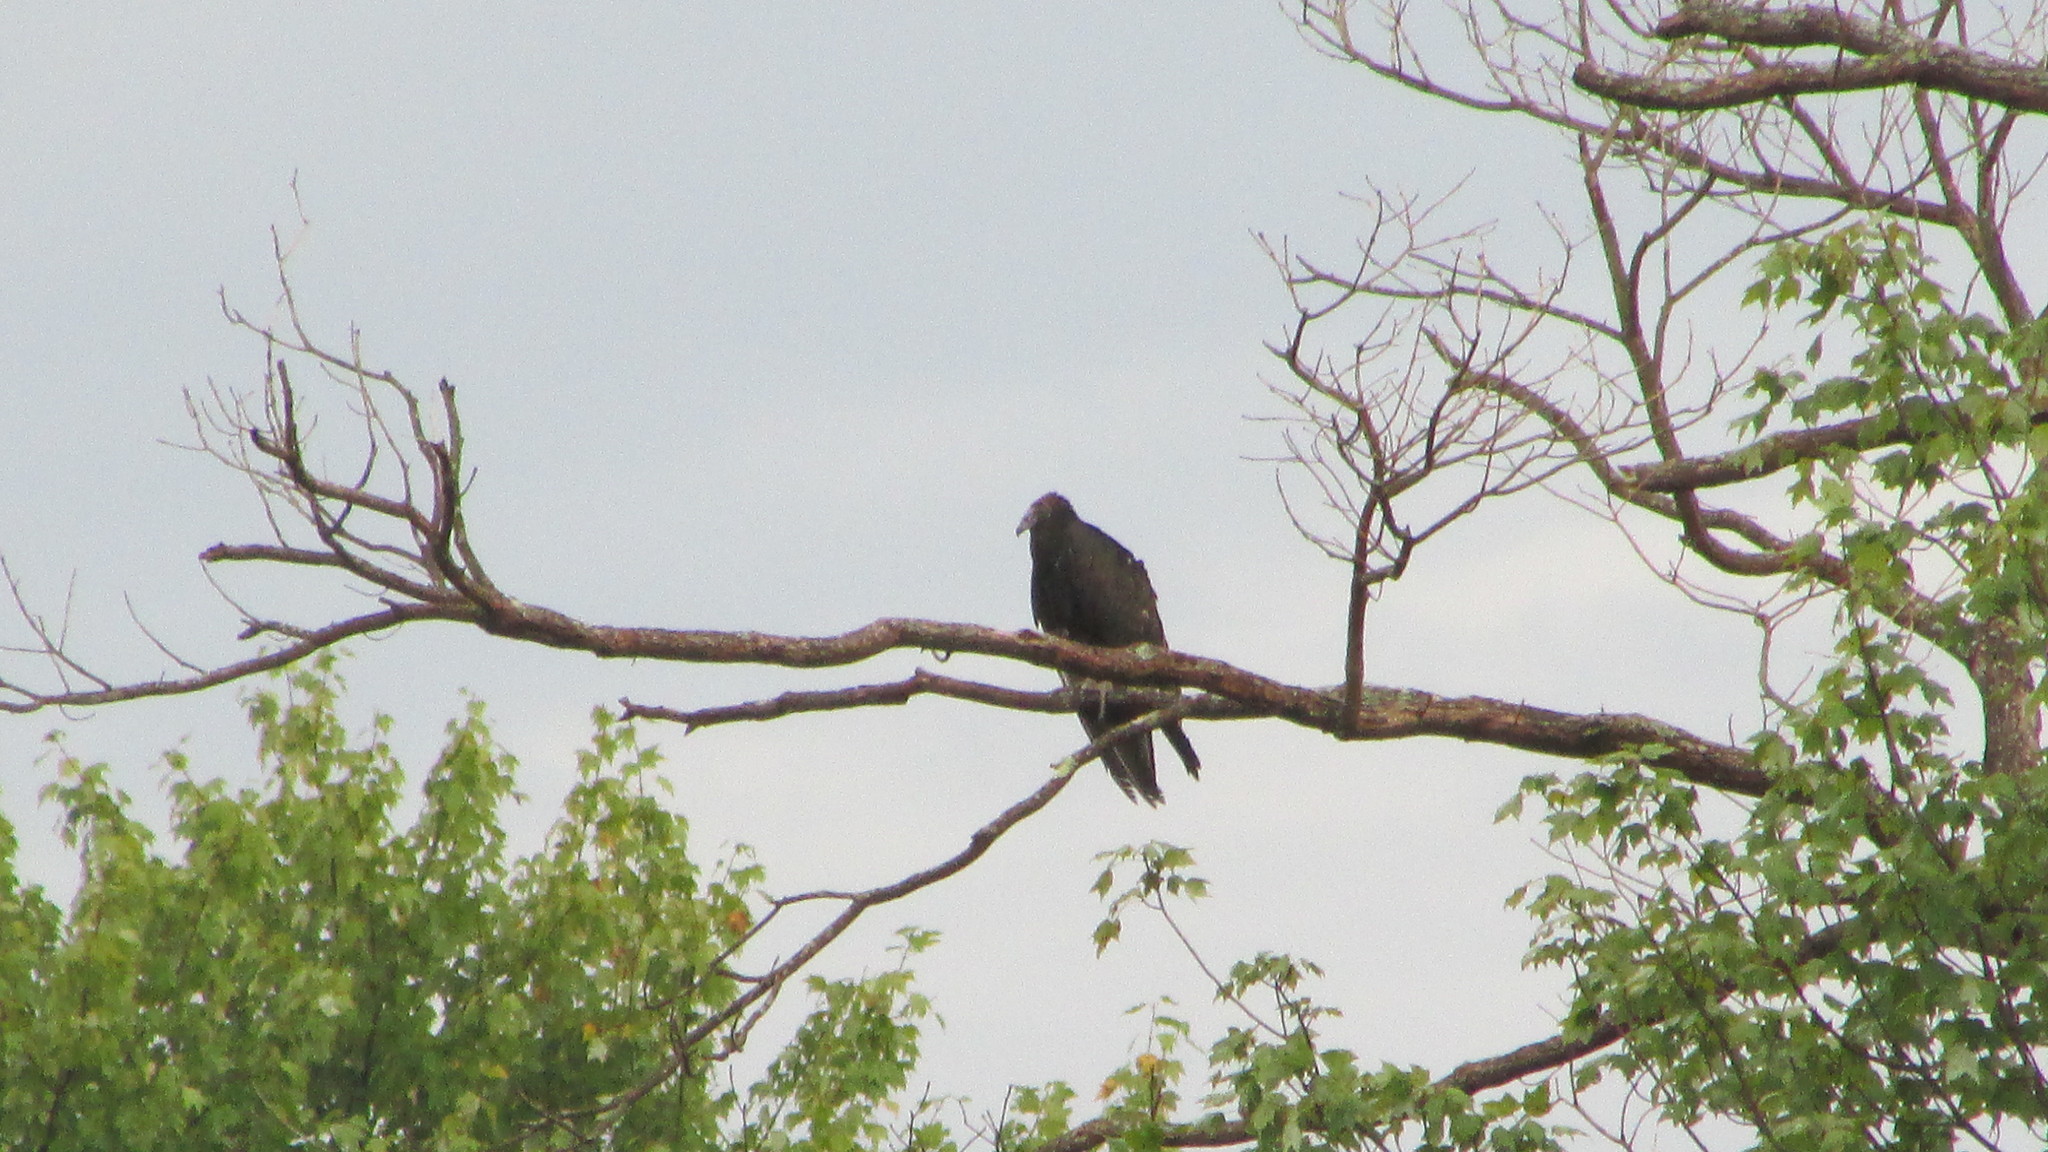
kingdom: Animalia
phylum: Chordata
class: Aves
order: Accipitriformes
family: Cathartidae
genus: Cathartes
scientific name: Cathartes aura
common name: Turkey vulture
